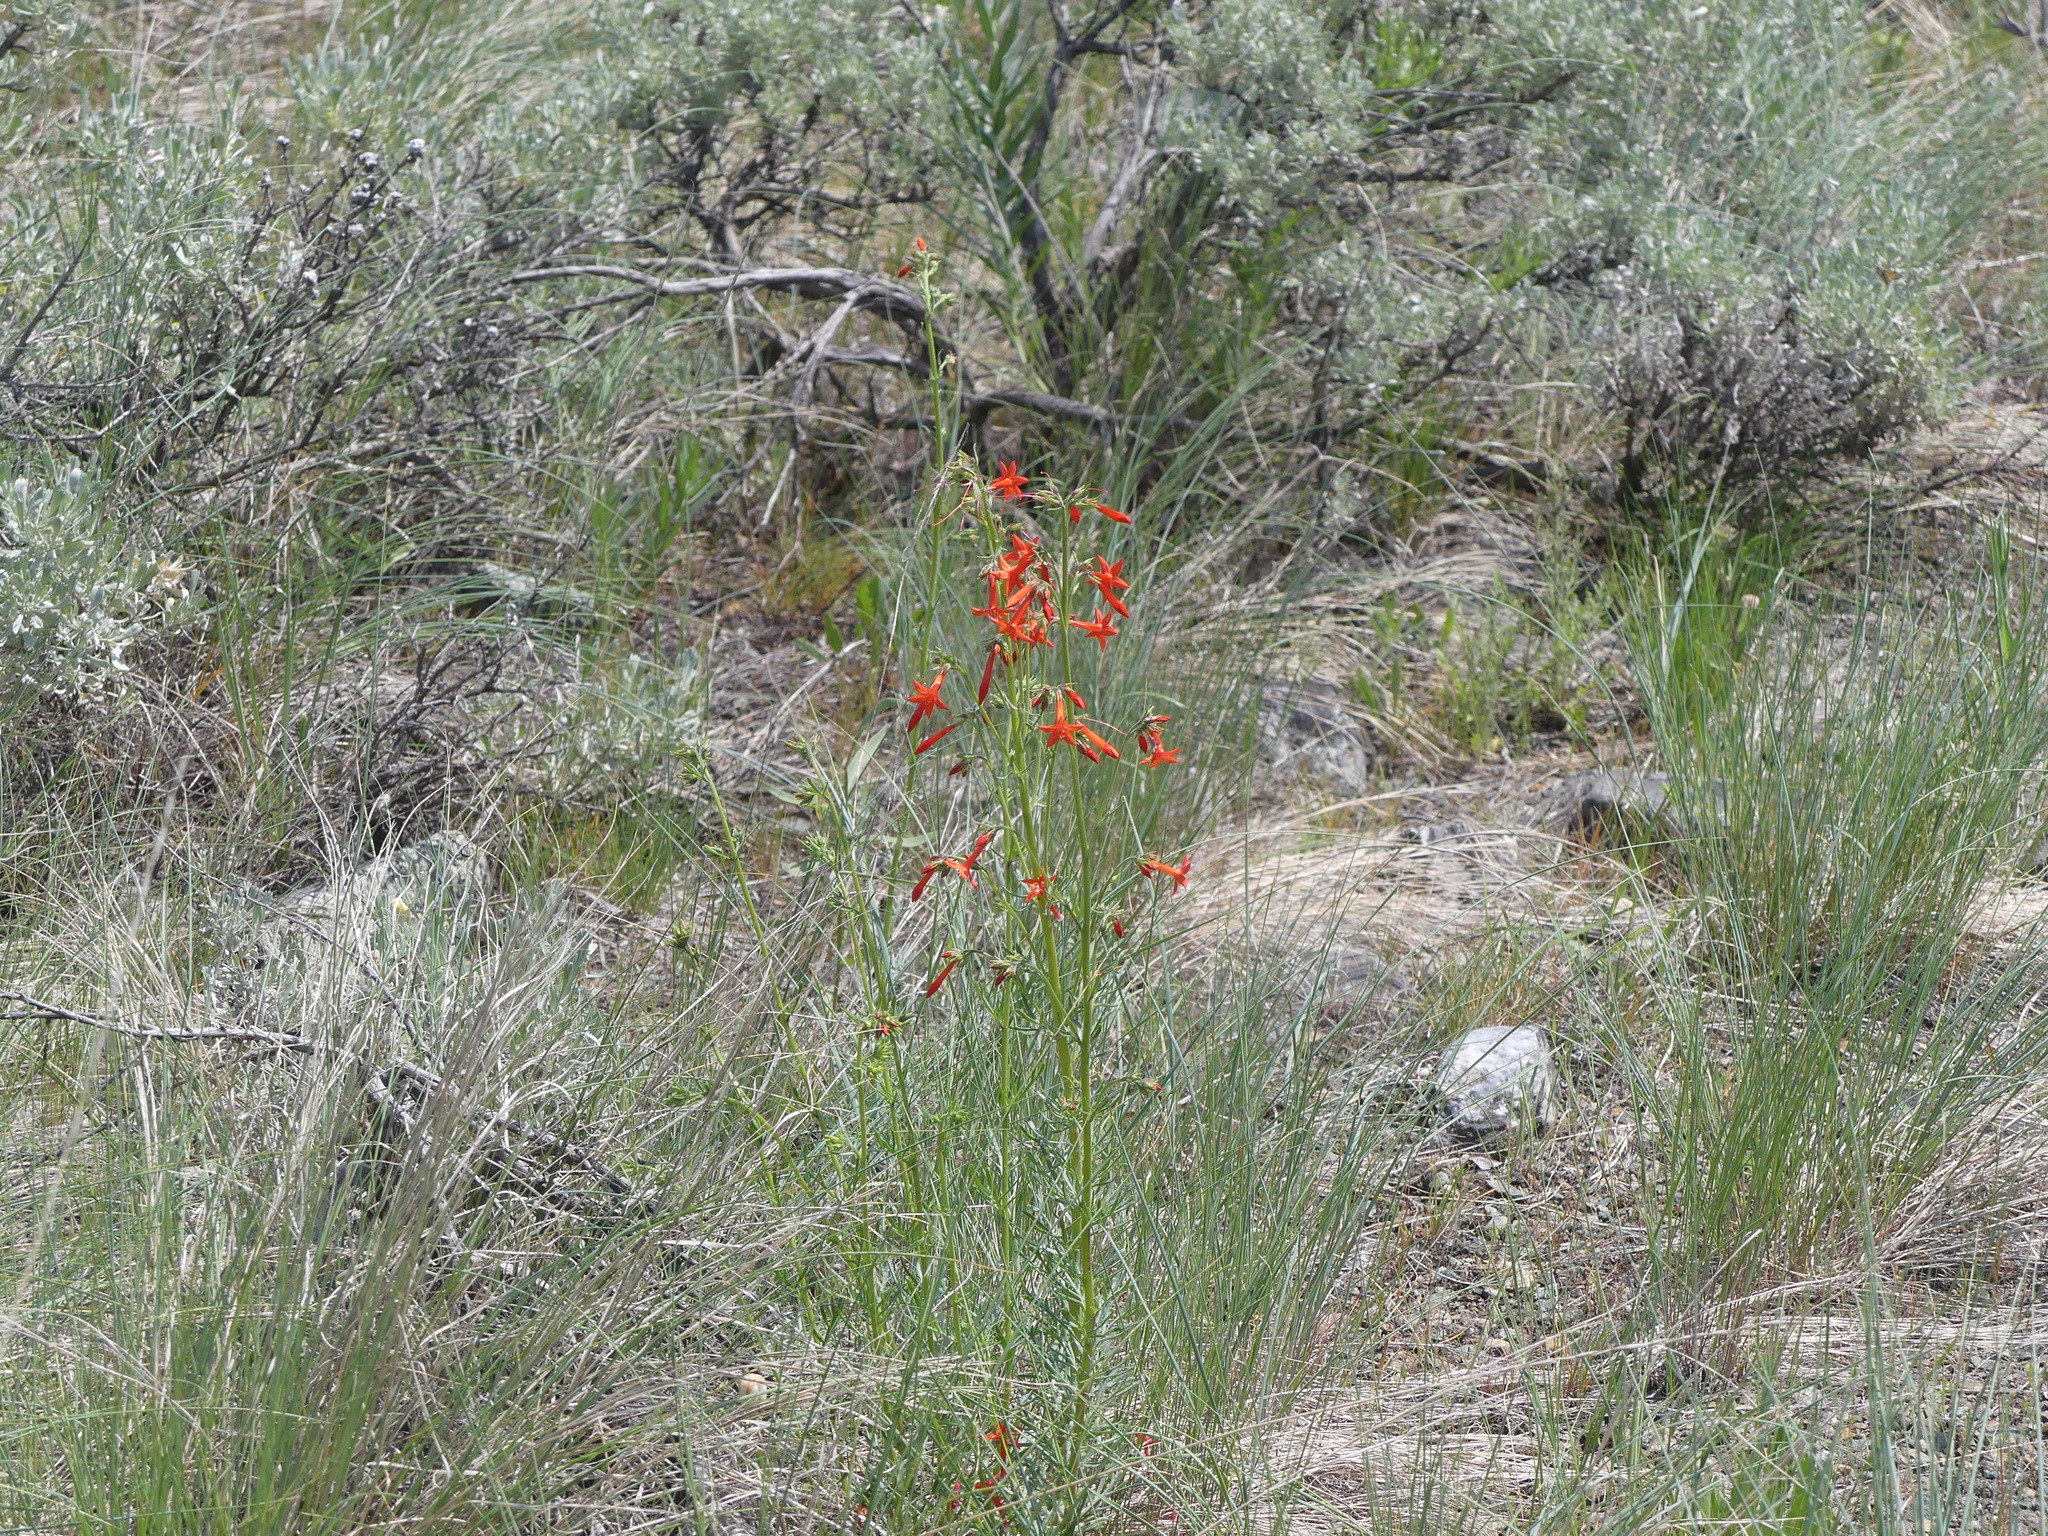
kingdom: Plantae
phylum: Tracheophyta
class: Magnoliopsida
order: Ericales
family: Polemoniaceae
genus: Ipomopsis
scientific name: Ipomopsis aggregata
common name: Scarlet gilia
